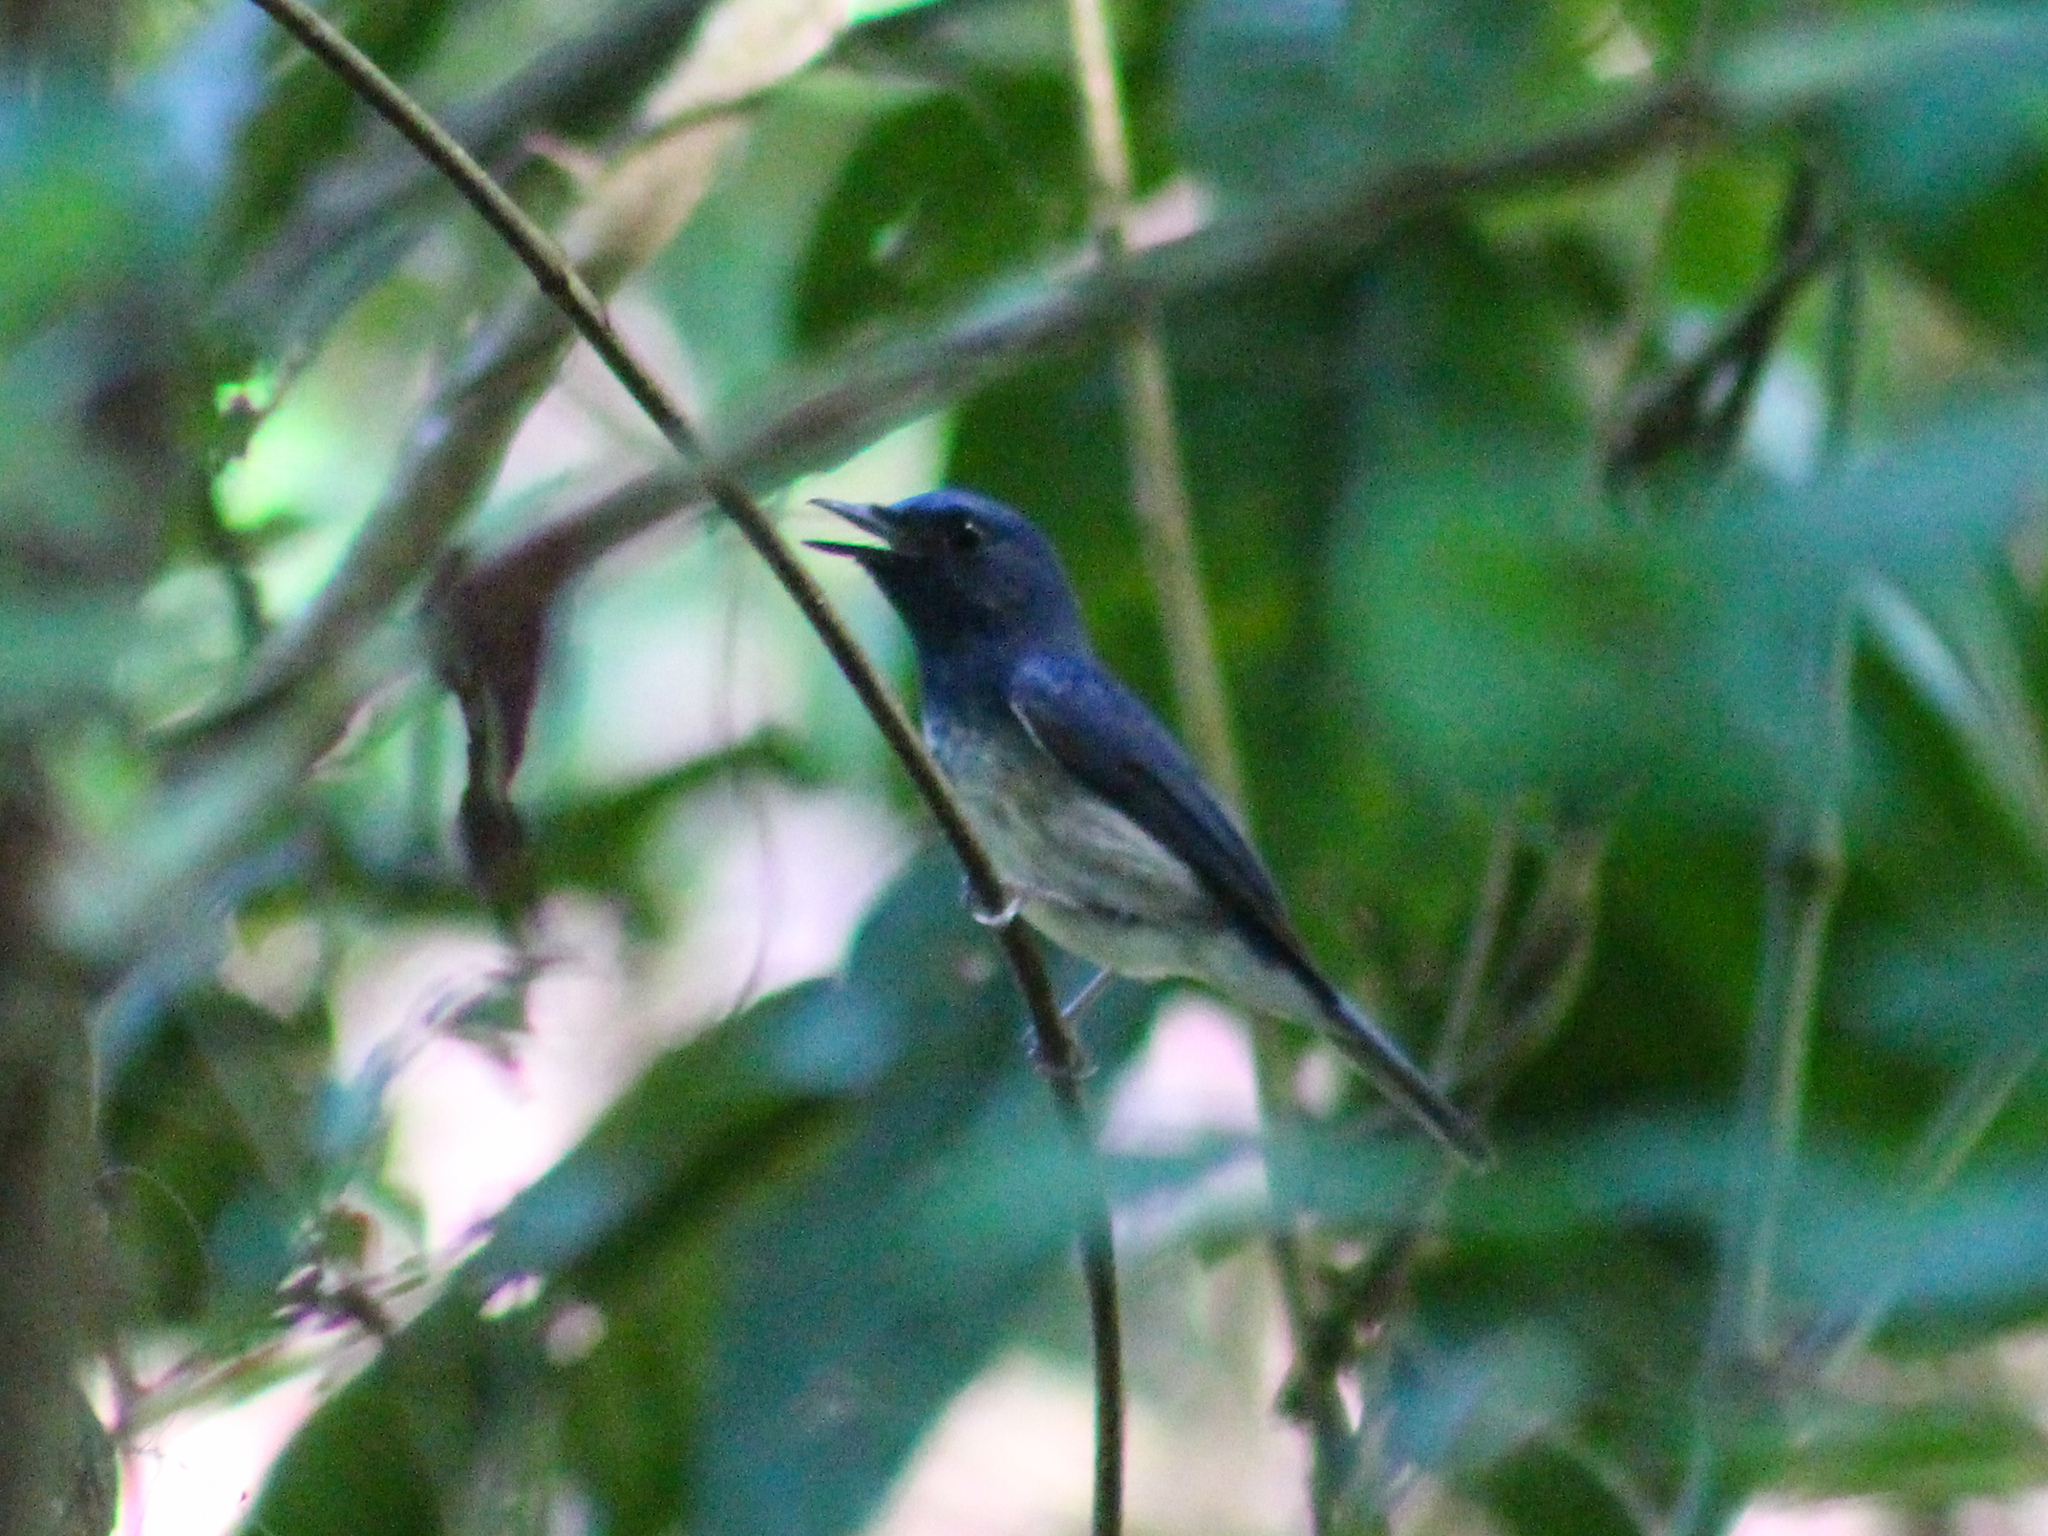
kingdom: Animalia
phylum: Chordata
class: Aves
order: Passeriformes
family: Muscicapidae
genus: Cyornis
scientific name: Cyornis hainanus
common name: Hainan blue flycatcher
